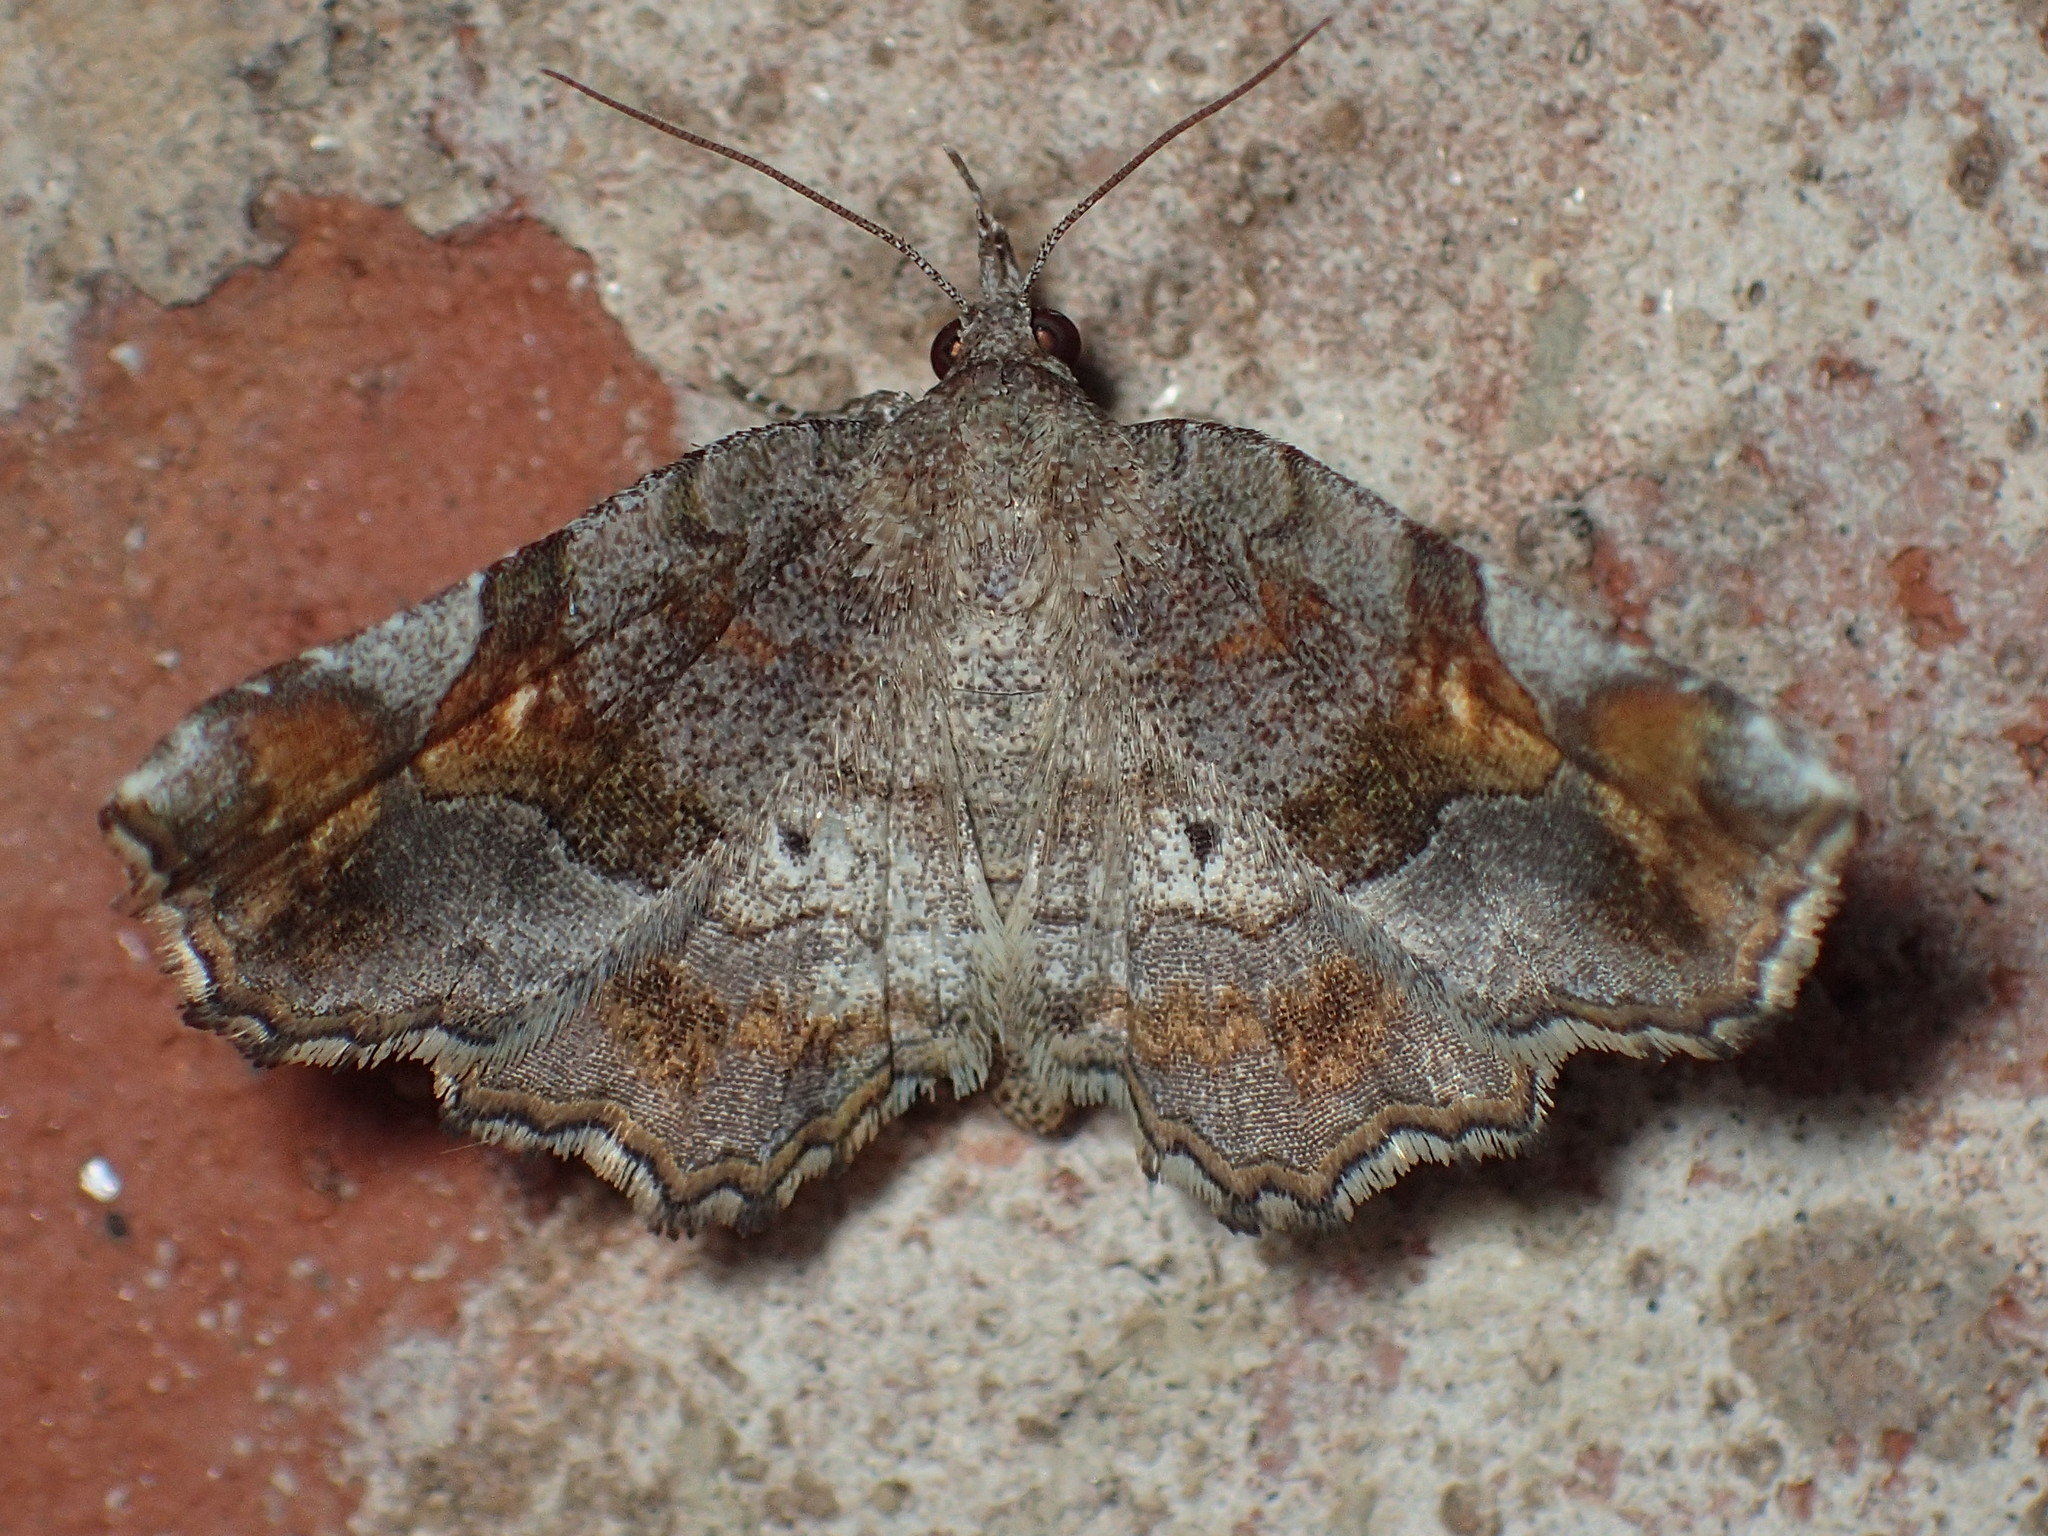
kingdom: Animalia
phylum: Arthropoda
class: Insecta
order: Lepidoptera
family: Erebidae
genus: Pangrapta
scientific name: Pangrapta decoralis
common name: Decorated owlet
